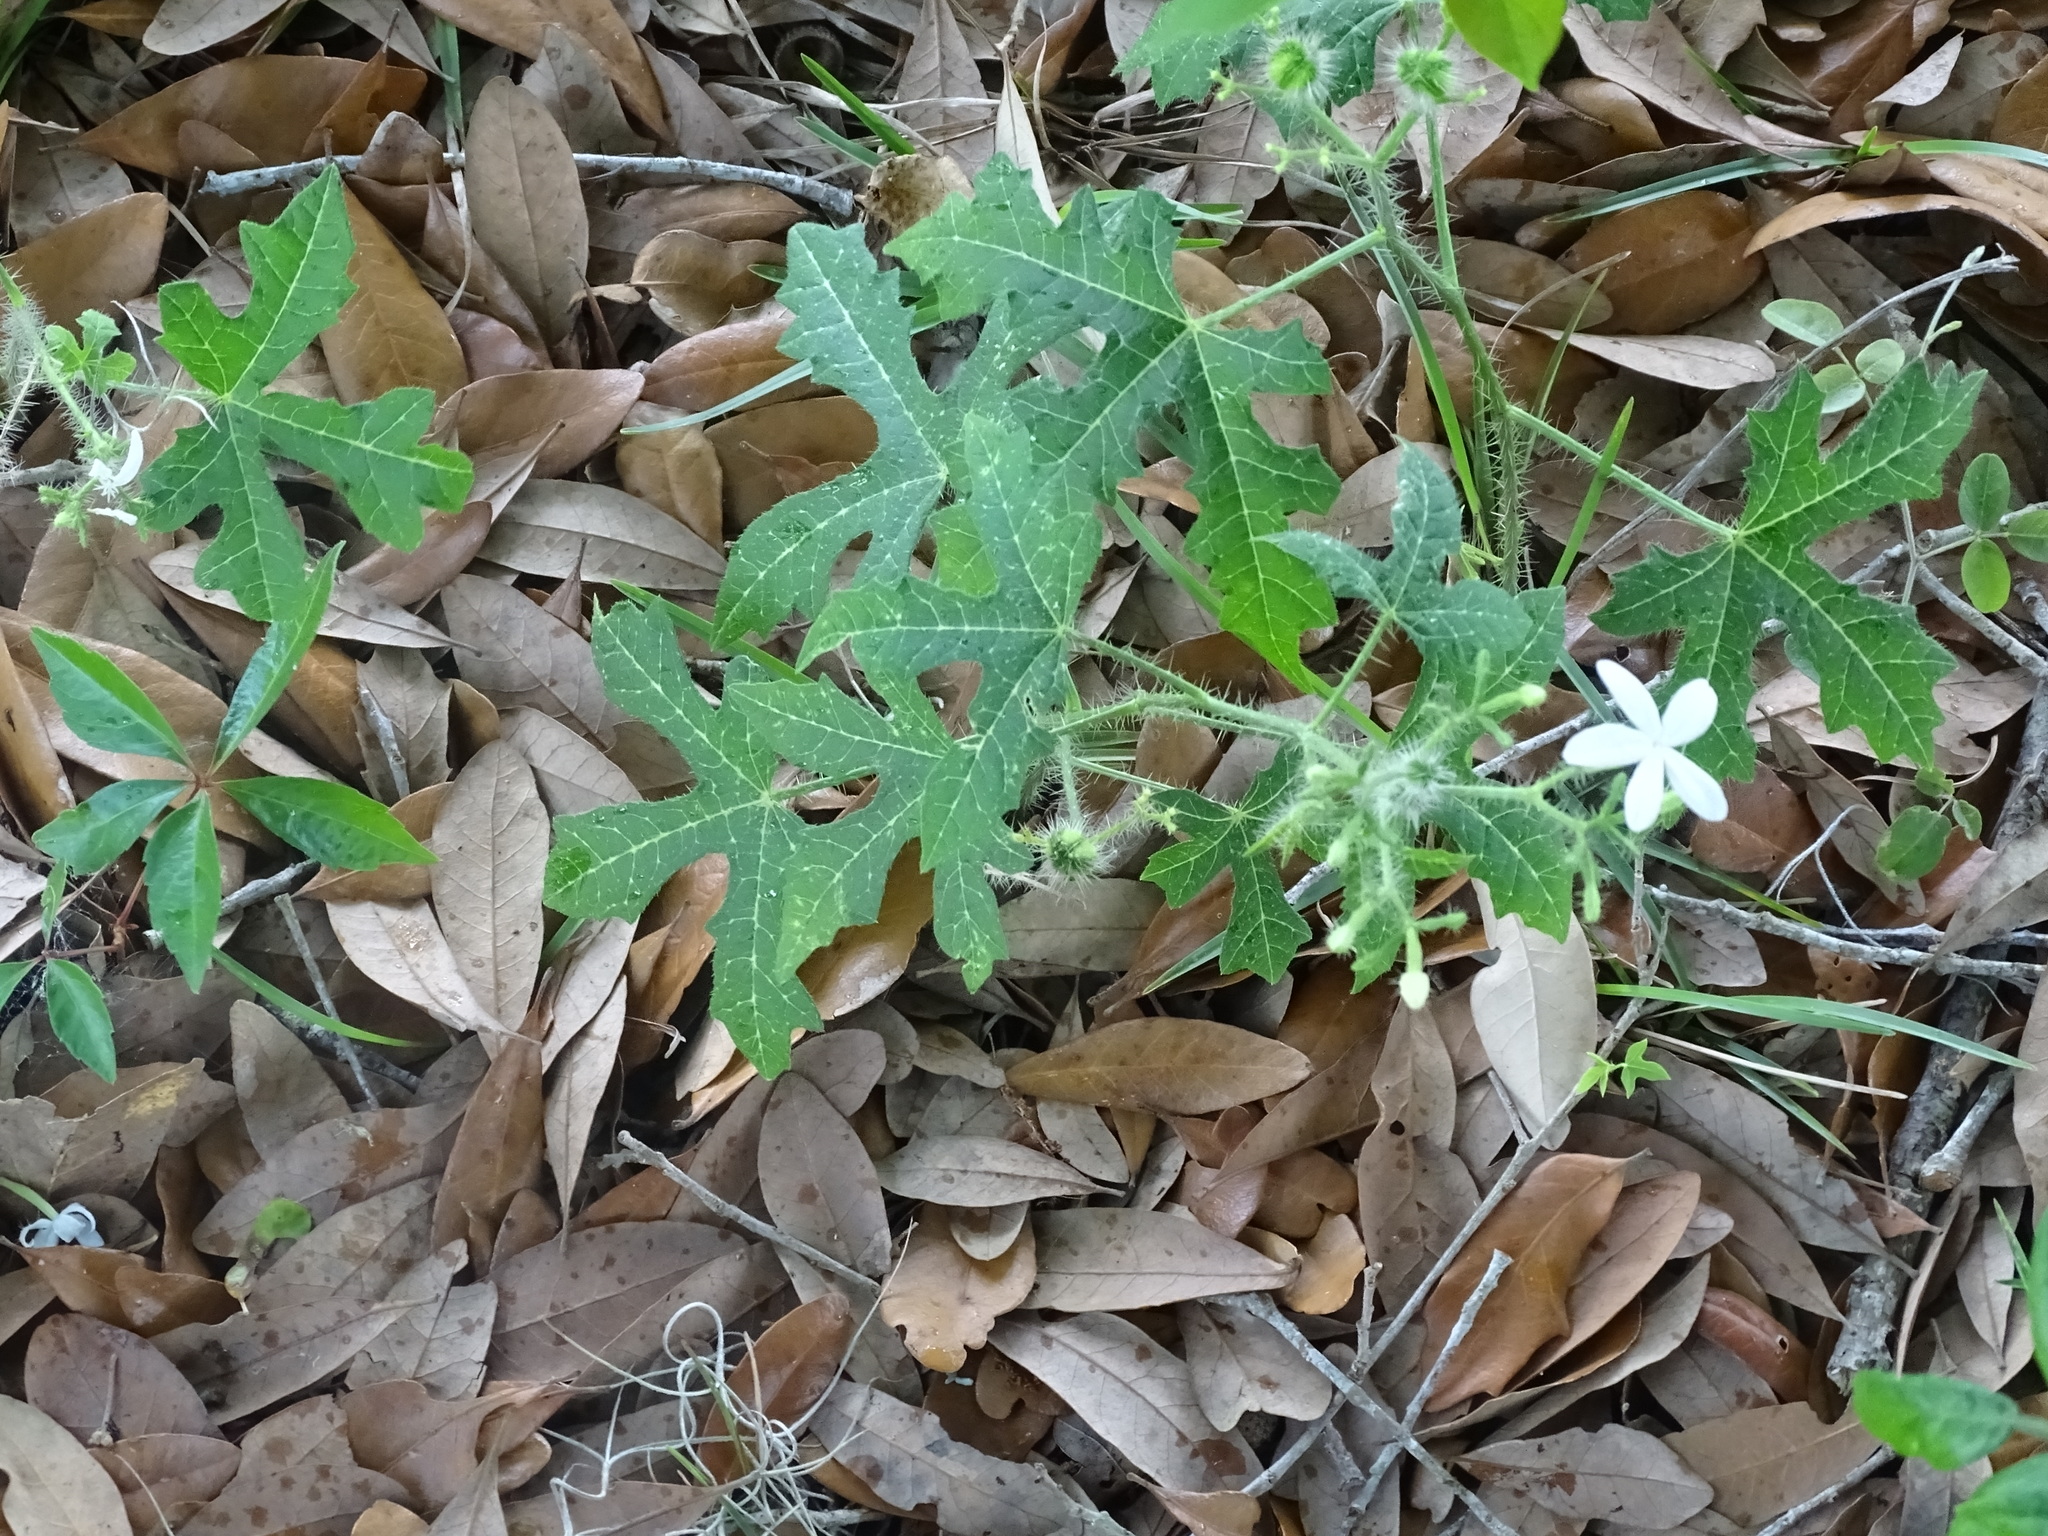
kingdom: Plantae
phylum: Tracheophyta
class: Magnoliopsida
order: Malpighiales
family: Euphorbiaceae
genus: Cnidoscolus
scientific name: Cnidoscolus stimulosus
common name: Bull-nettle
